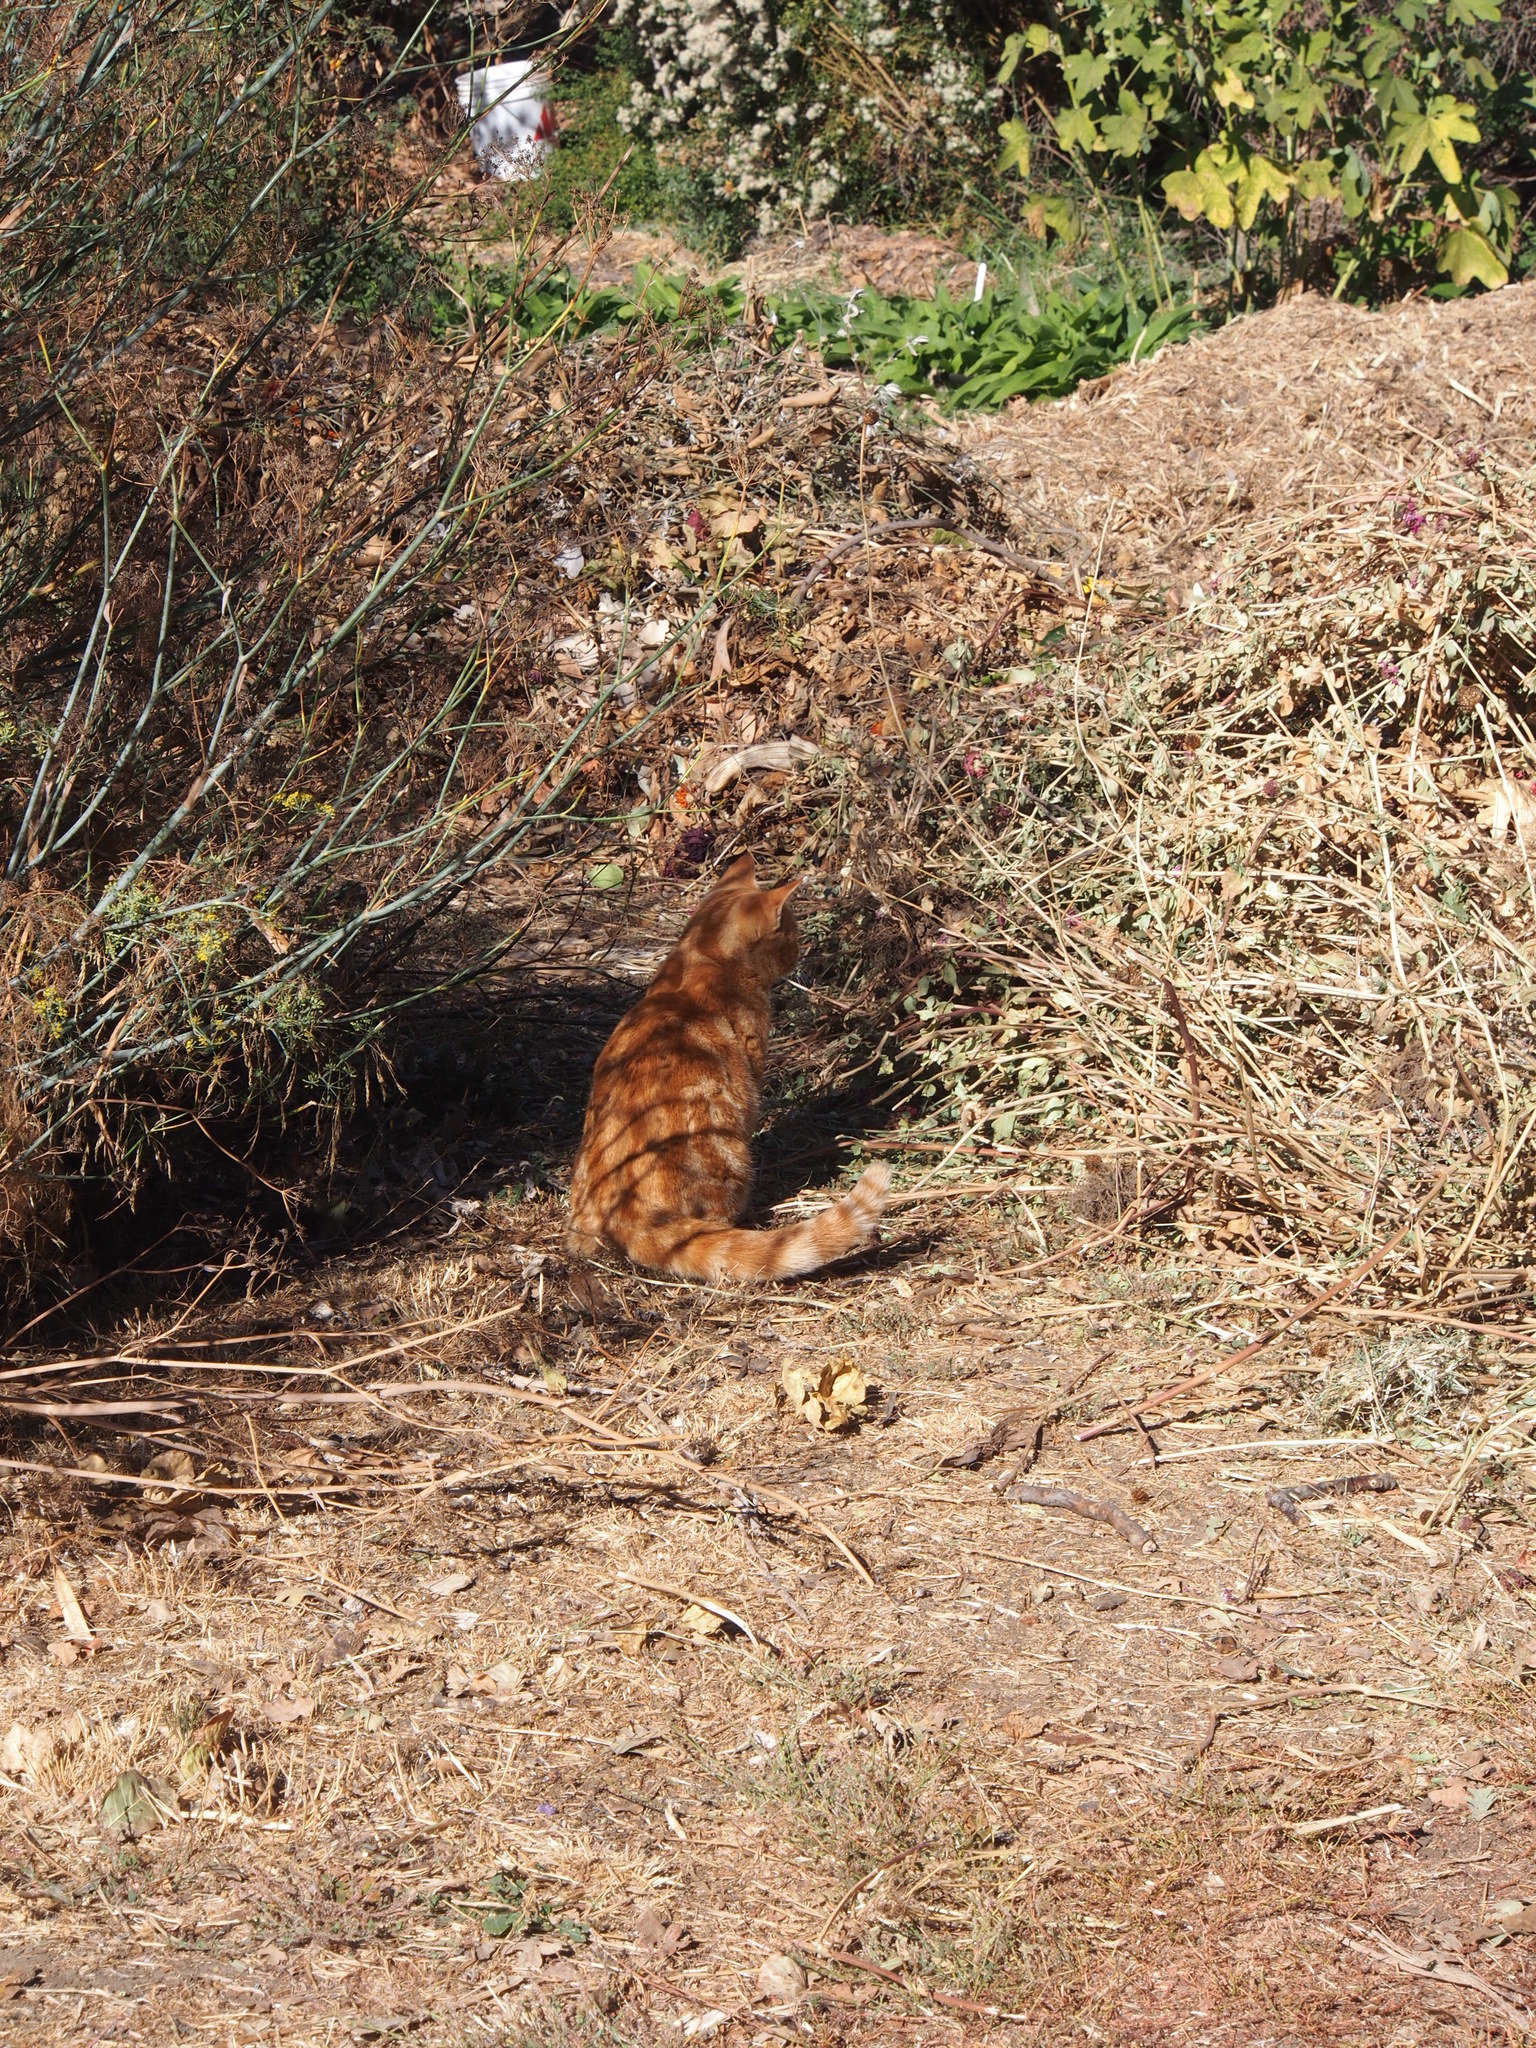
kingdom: Animalia
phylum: Chordata
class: Mammalia
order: Carnivora
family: Felidae
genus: Felis
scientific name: Felis catus
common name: Domestic cat
